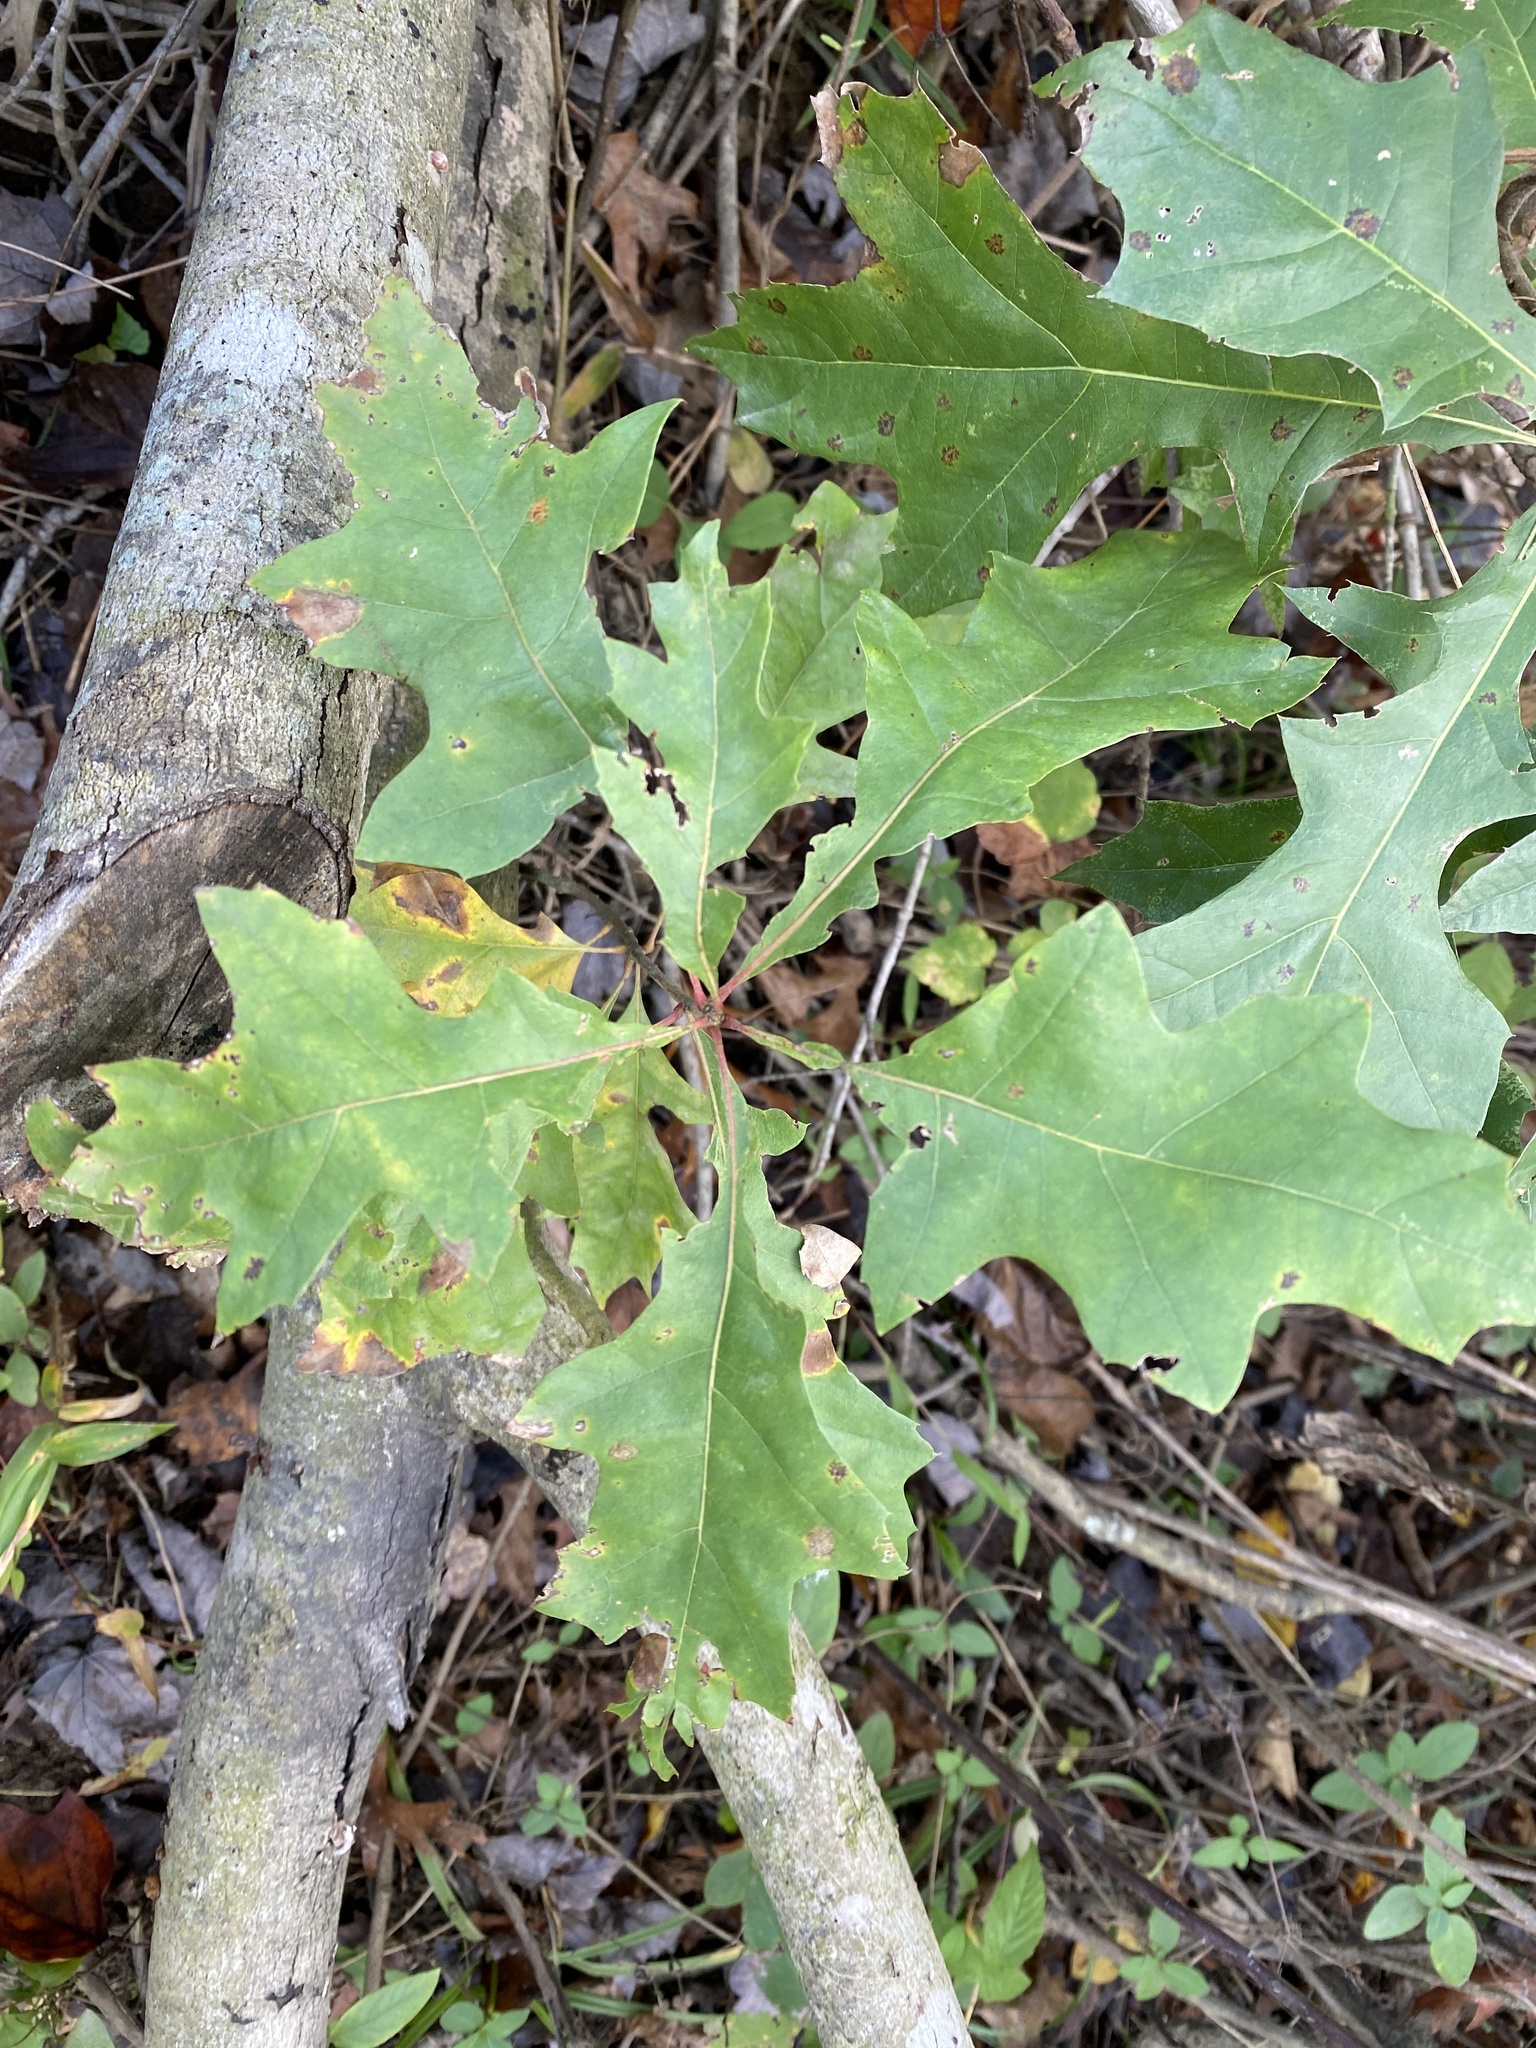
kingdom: Plantae
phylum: Tracheophyta
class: Magnoliopsida
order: Fagales
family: Fagaceae
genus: Quercus
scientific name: Quercus velutina
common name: Black oak
